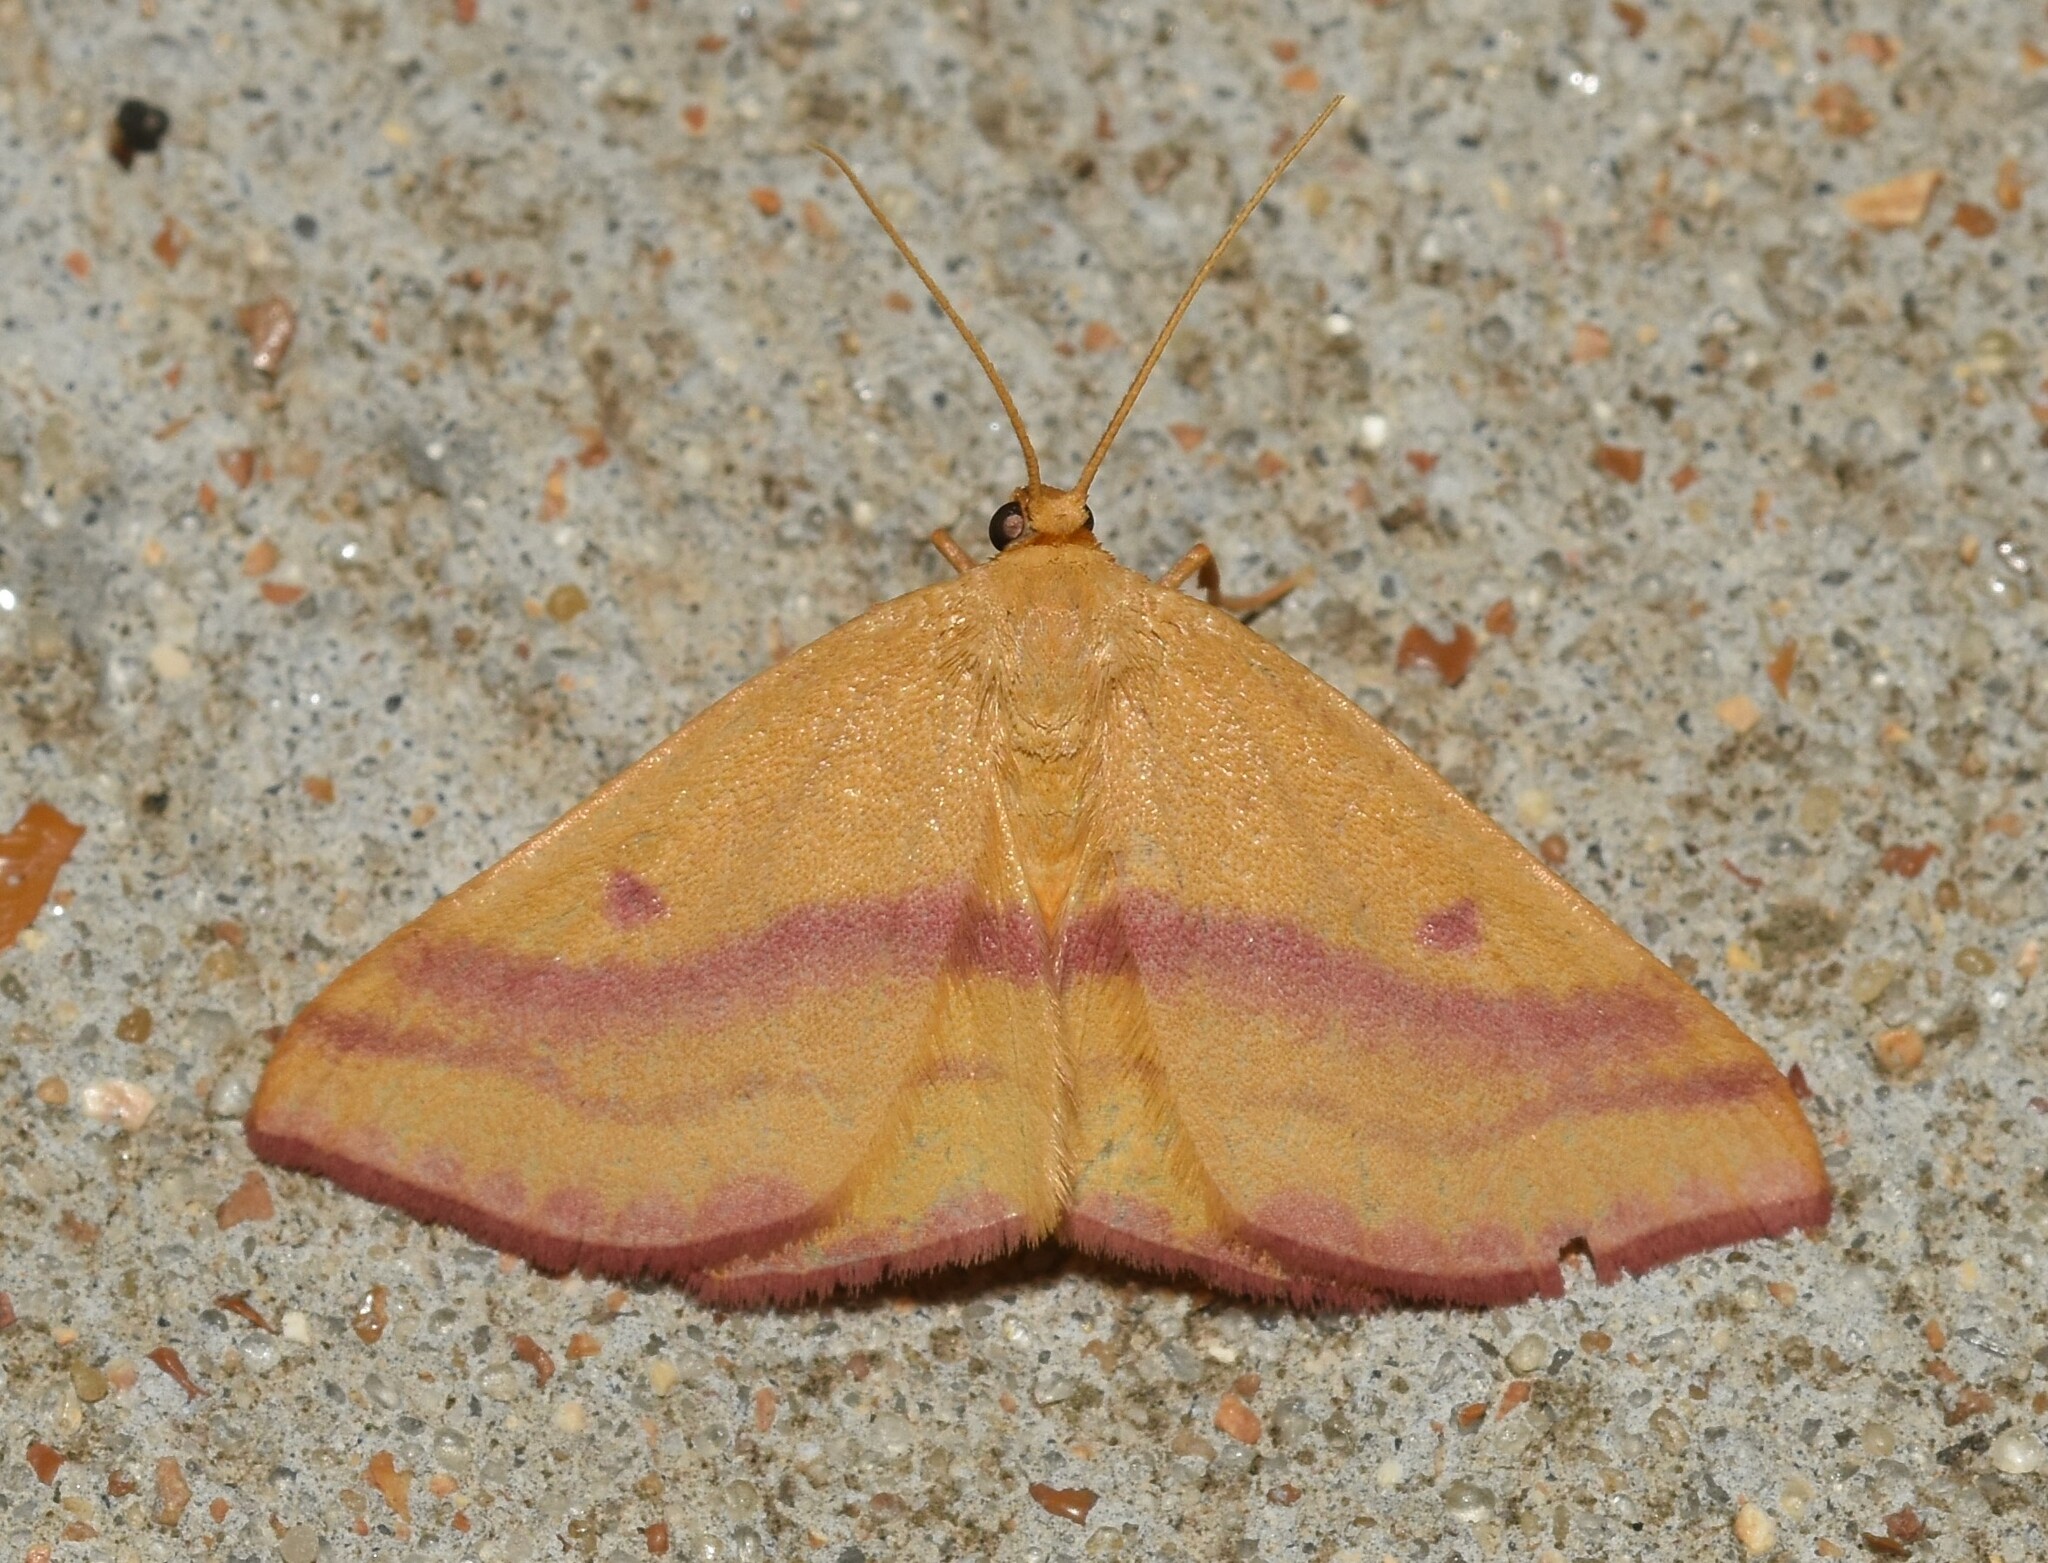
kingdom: Animalia
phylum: Arthropoda
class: Insecta
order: Lepidoptera
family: Geometridae
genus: Haematopis
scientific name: Haematopis grataria
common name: Chickweed geometer
